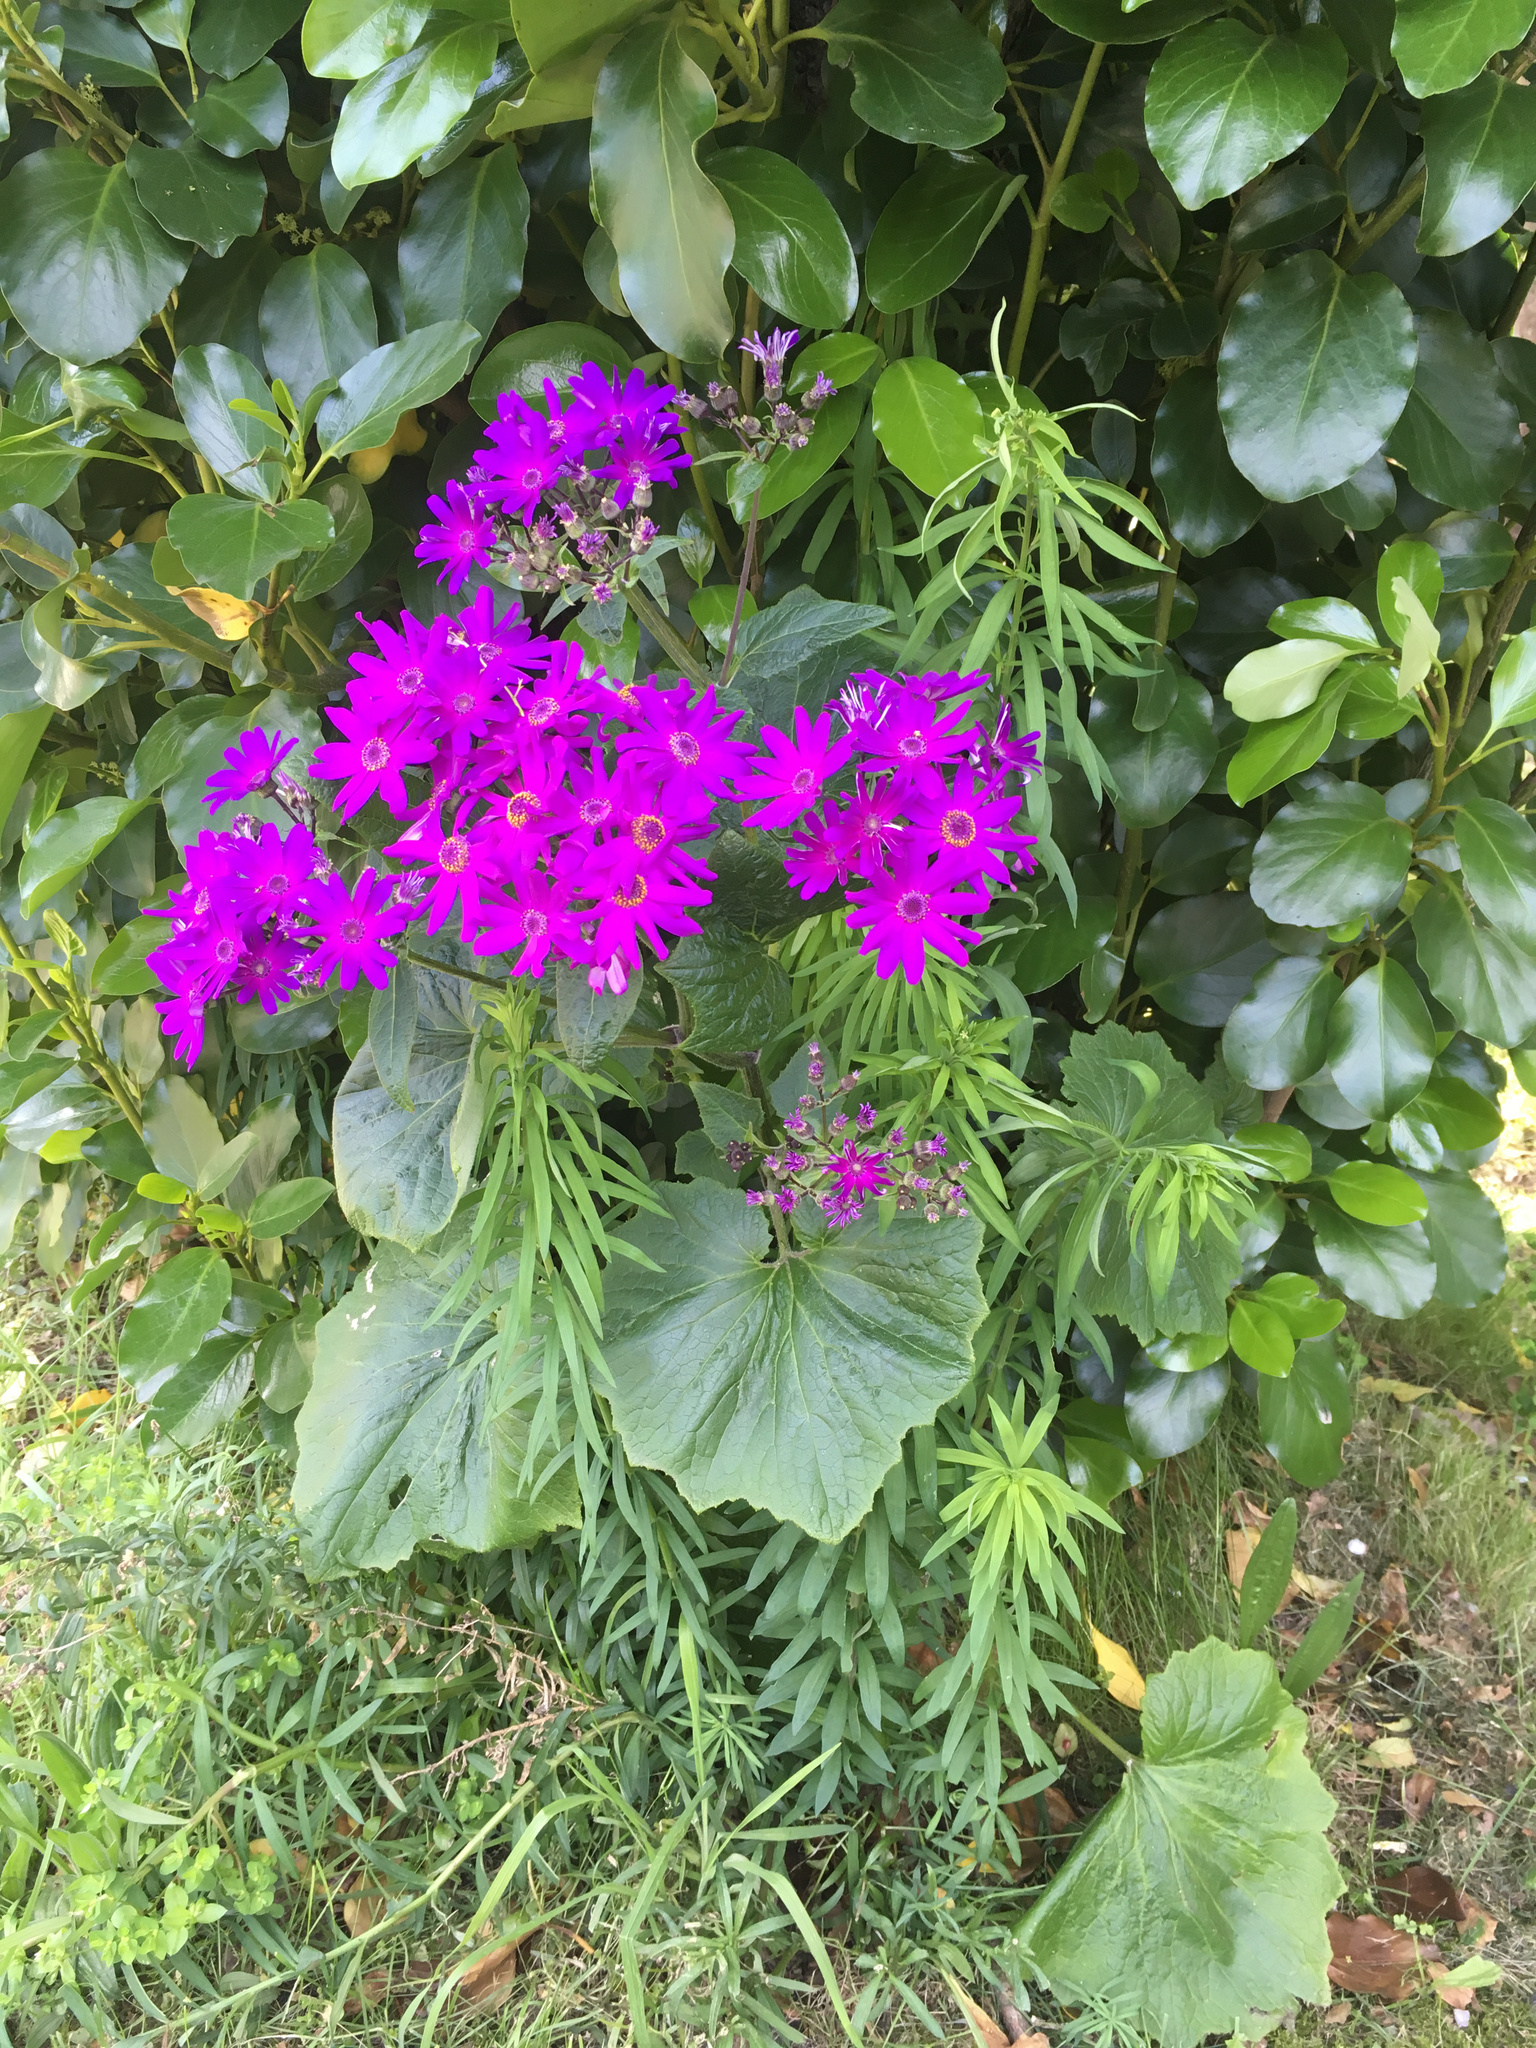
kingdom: Plantae
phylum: Tracheophyta
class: Magnoliopsida
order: Asterales
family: Asteraceae
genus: Pericallis
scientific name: Pericallis hybrida
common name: Cineraria
